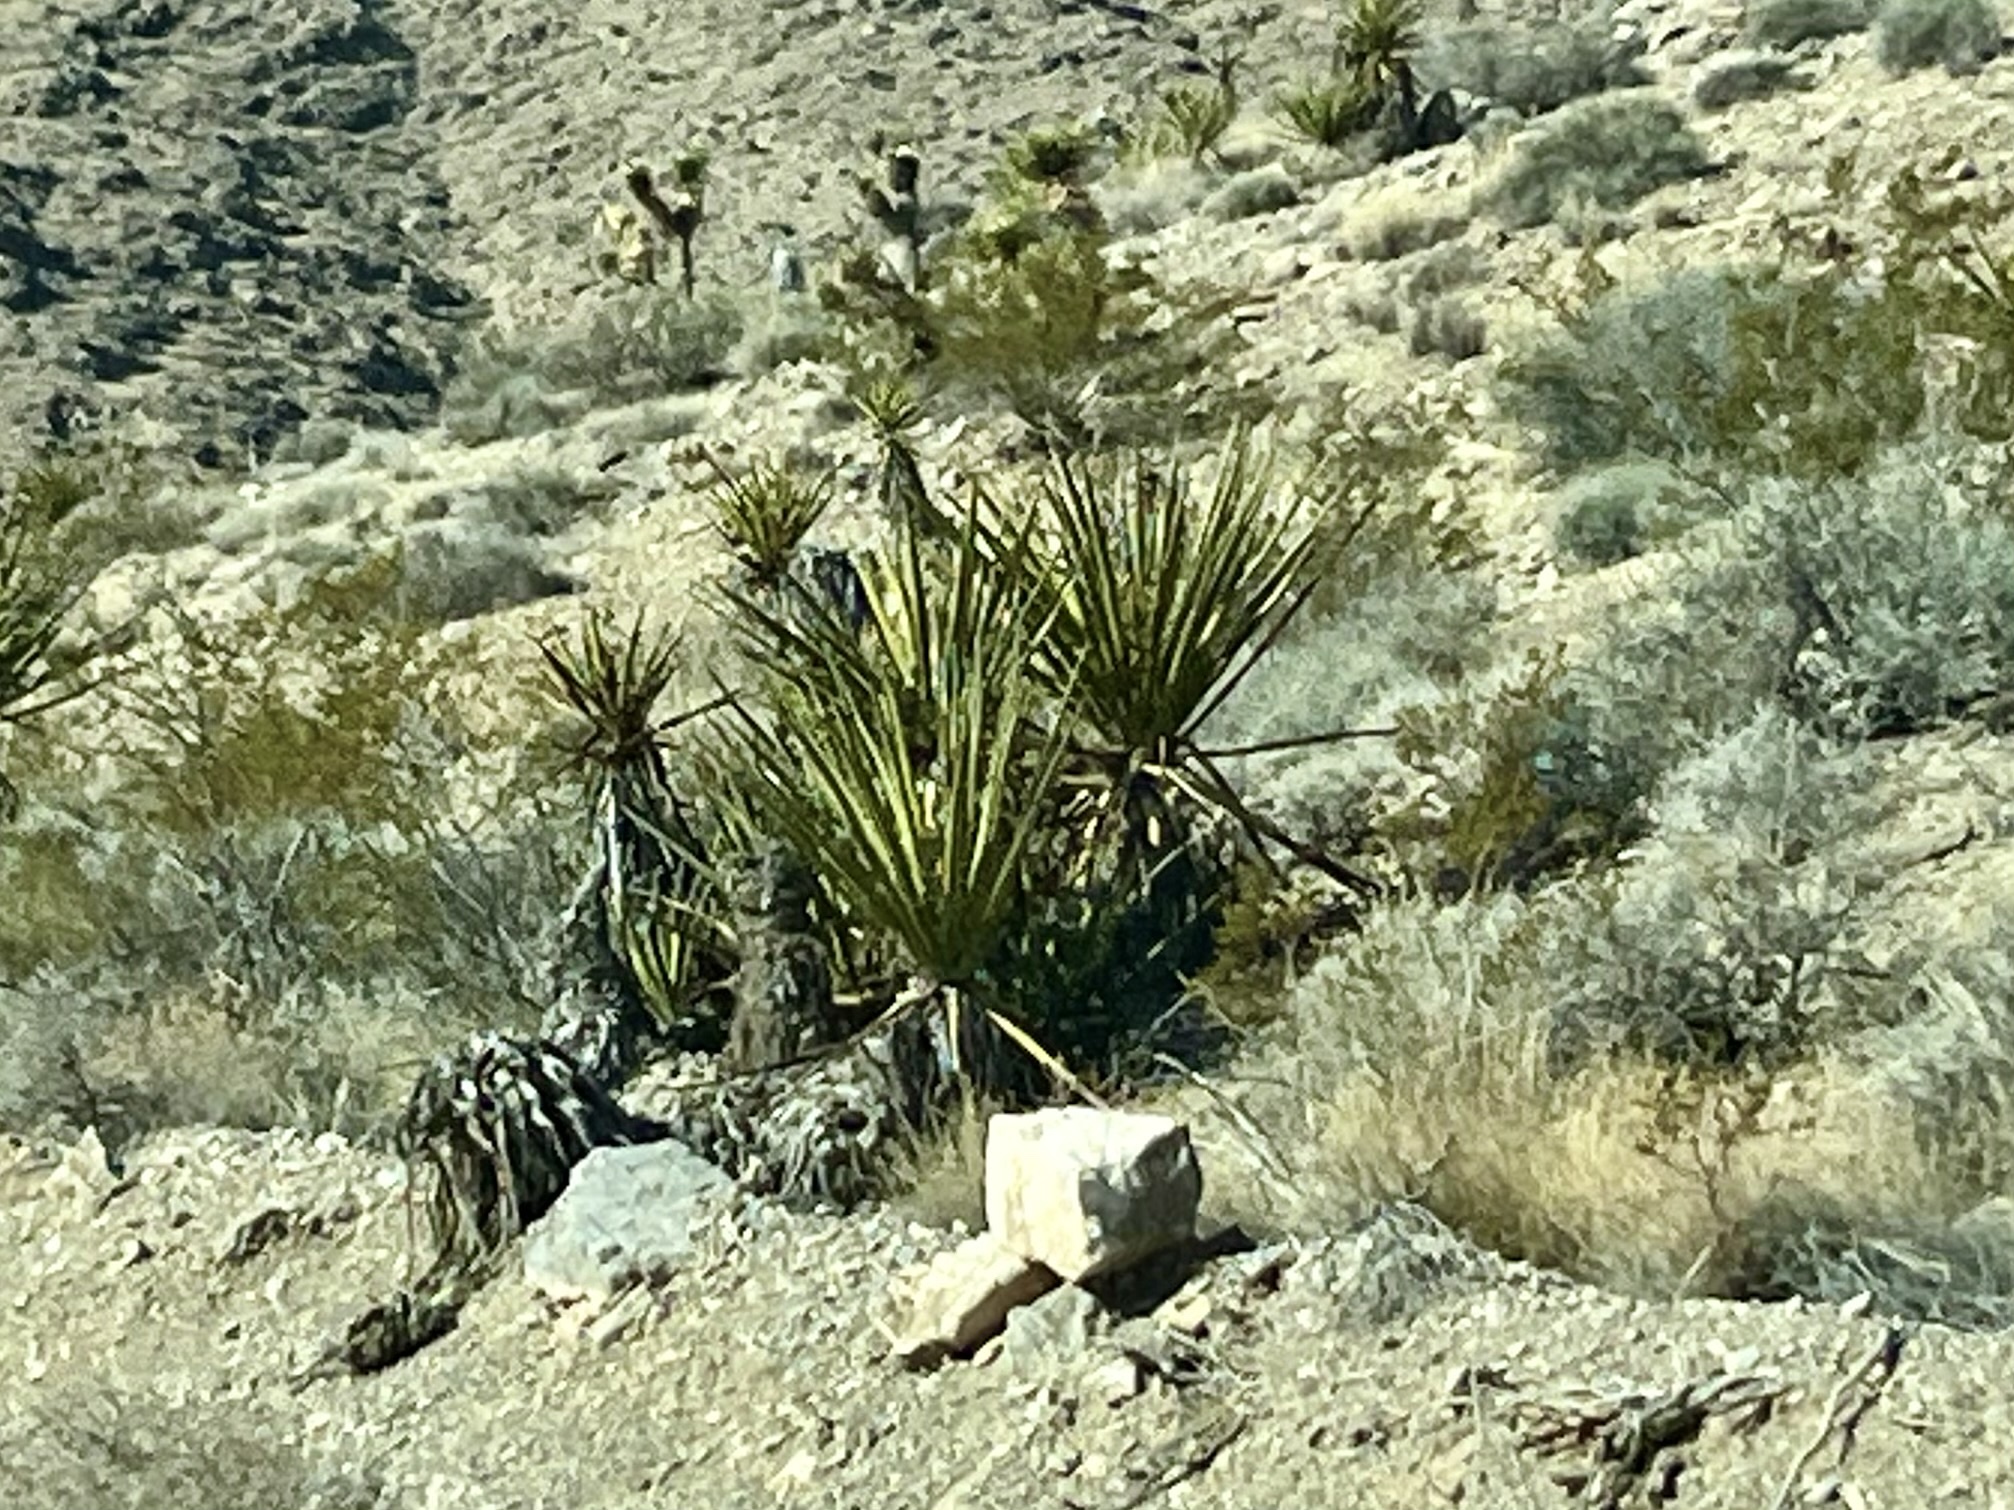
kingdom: Plantae
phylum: Tracheophyta
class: Liliopsida
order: Asparagales
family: Asparagaceae
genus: Yucca
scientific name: Yucca schidigera
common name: Mojave yucca
